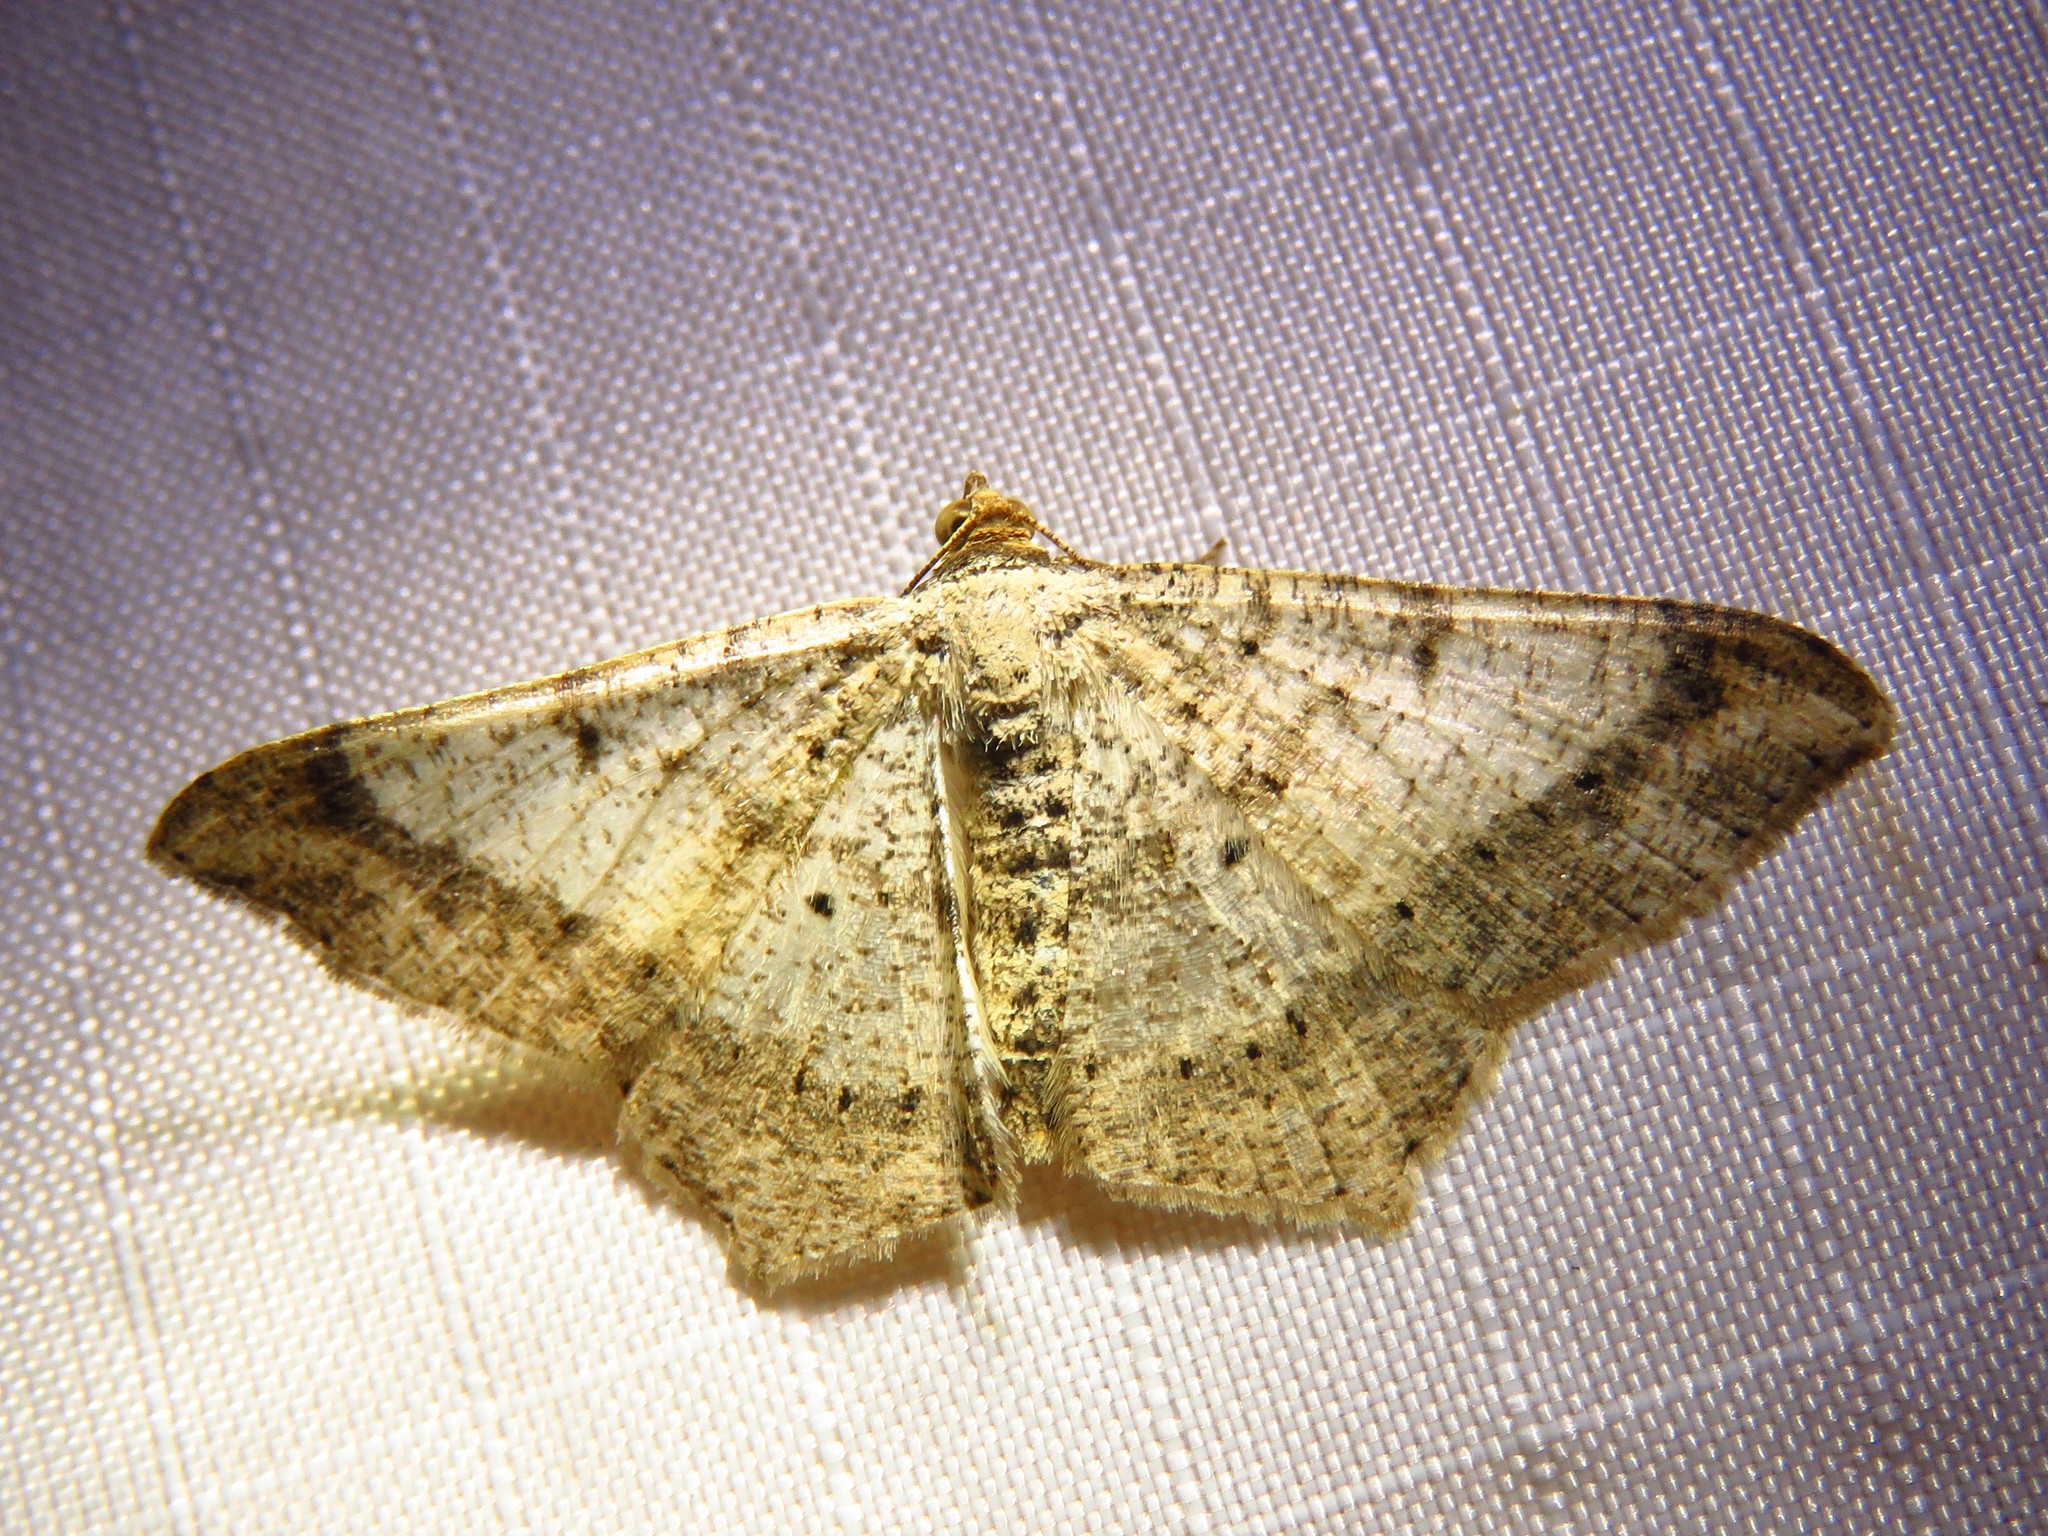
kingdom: Animalia
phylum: Arthropoda
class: Insecta
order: Lepidoptera
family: Geometridae
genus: Macaria
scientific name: Macaria abydata
